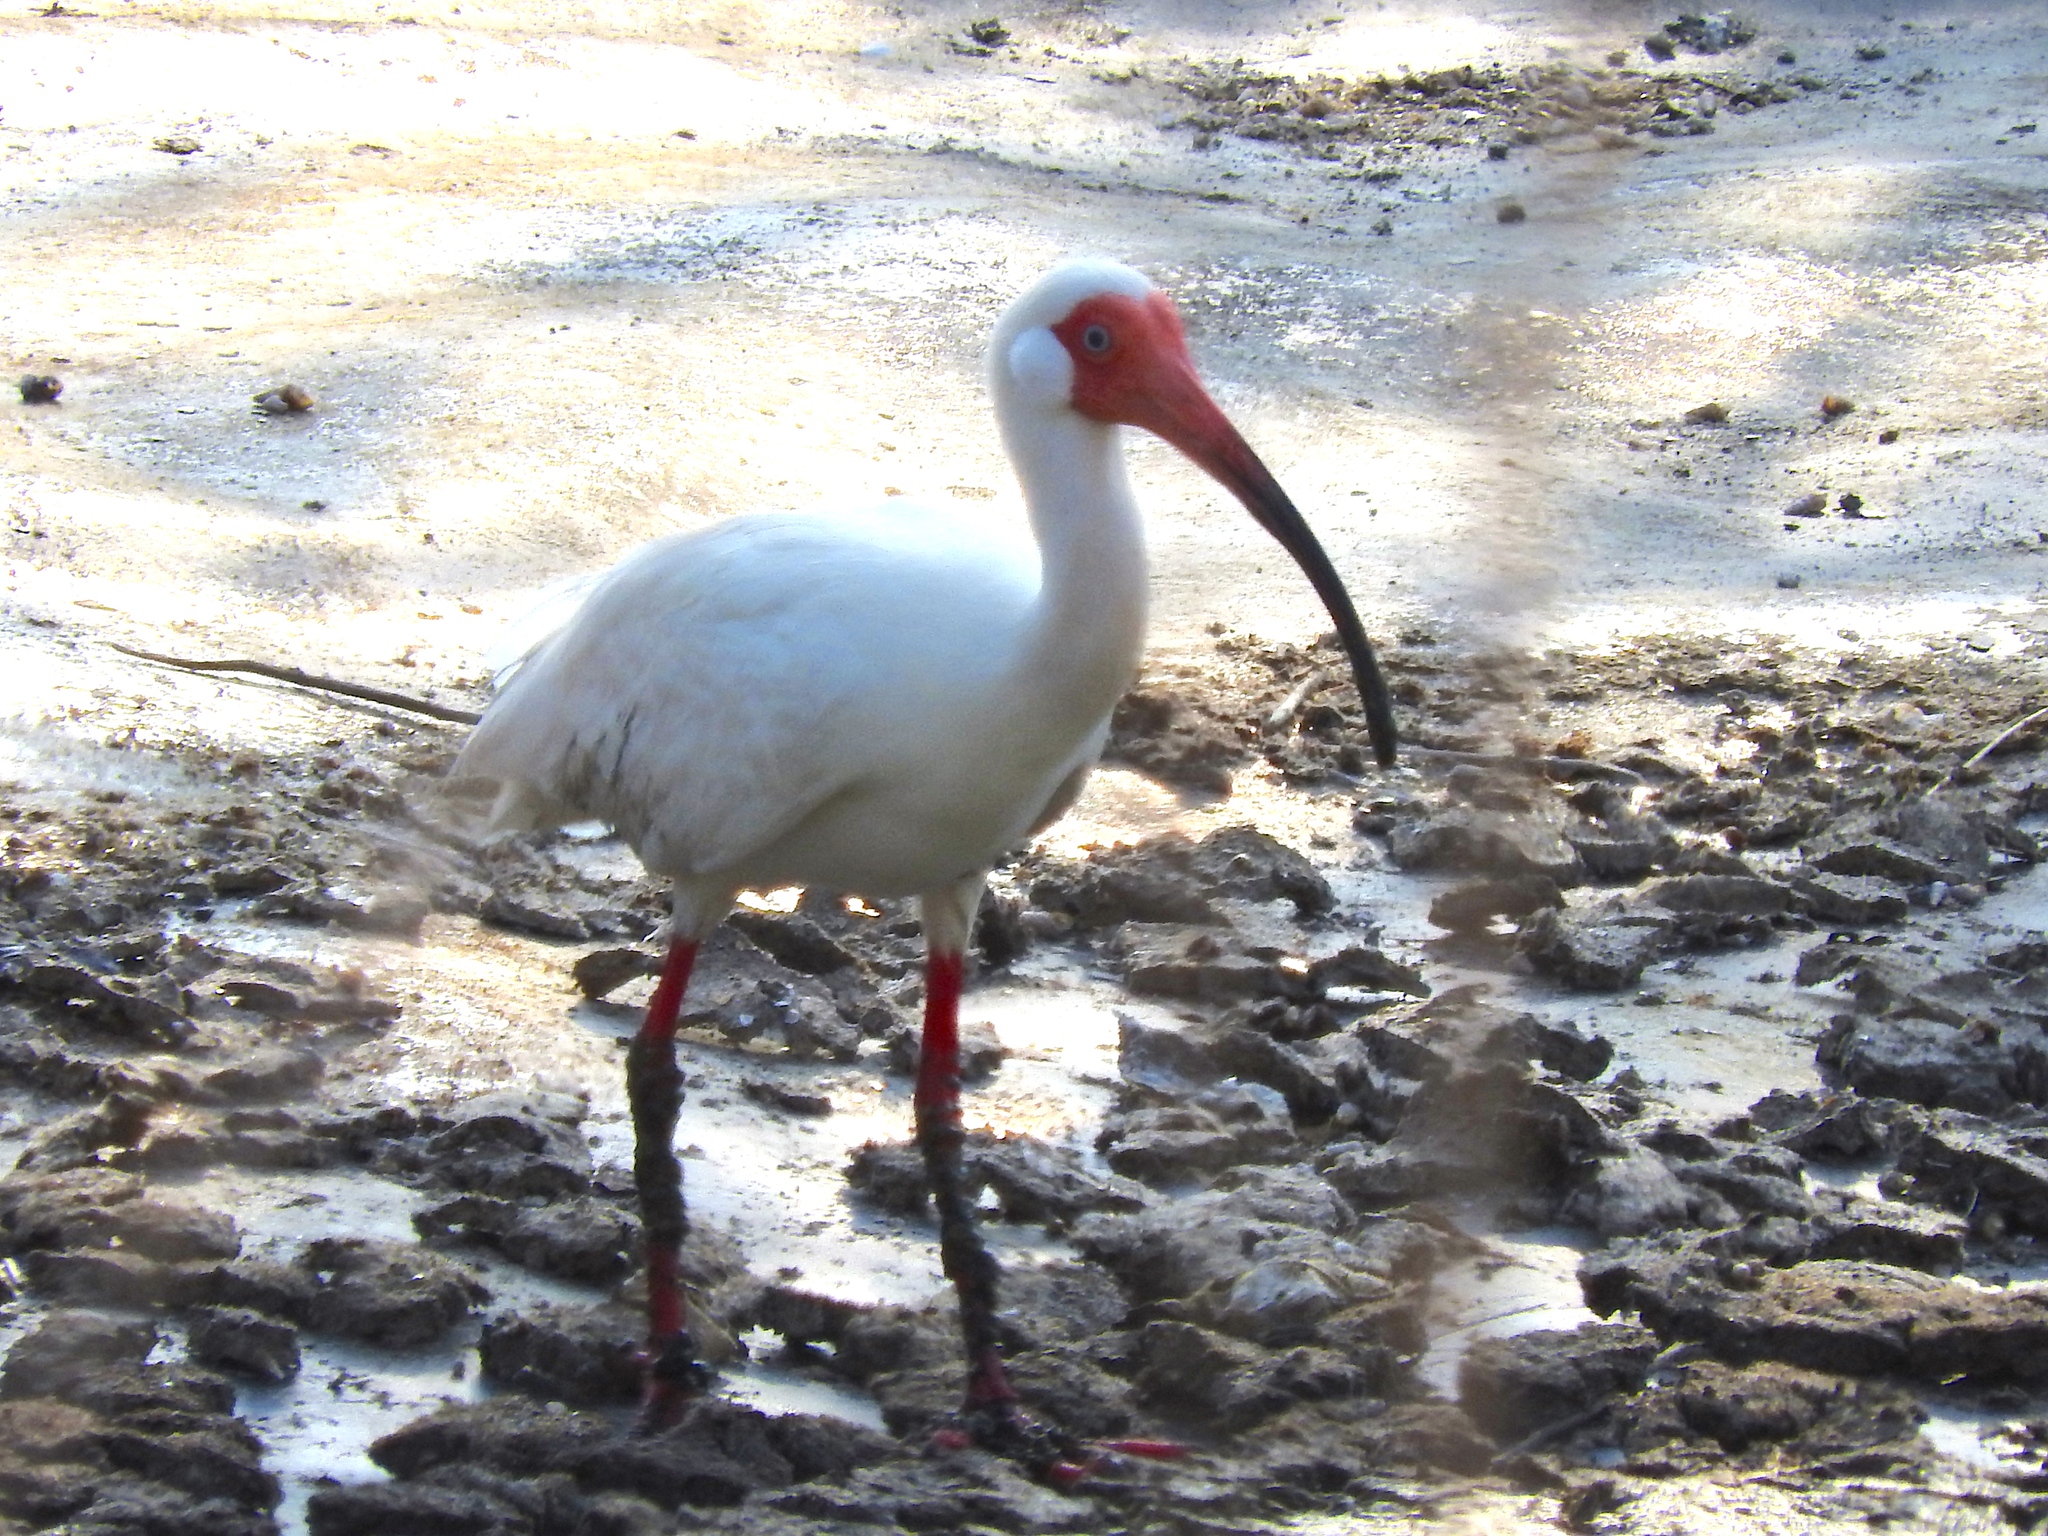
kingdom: Animalia
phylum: Chordata
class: Aves
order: Pelecaniformes
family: Threskiornithidae
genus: Eudocimus
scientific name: Eudocimus albus
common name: White ibis
